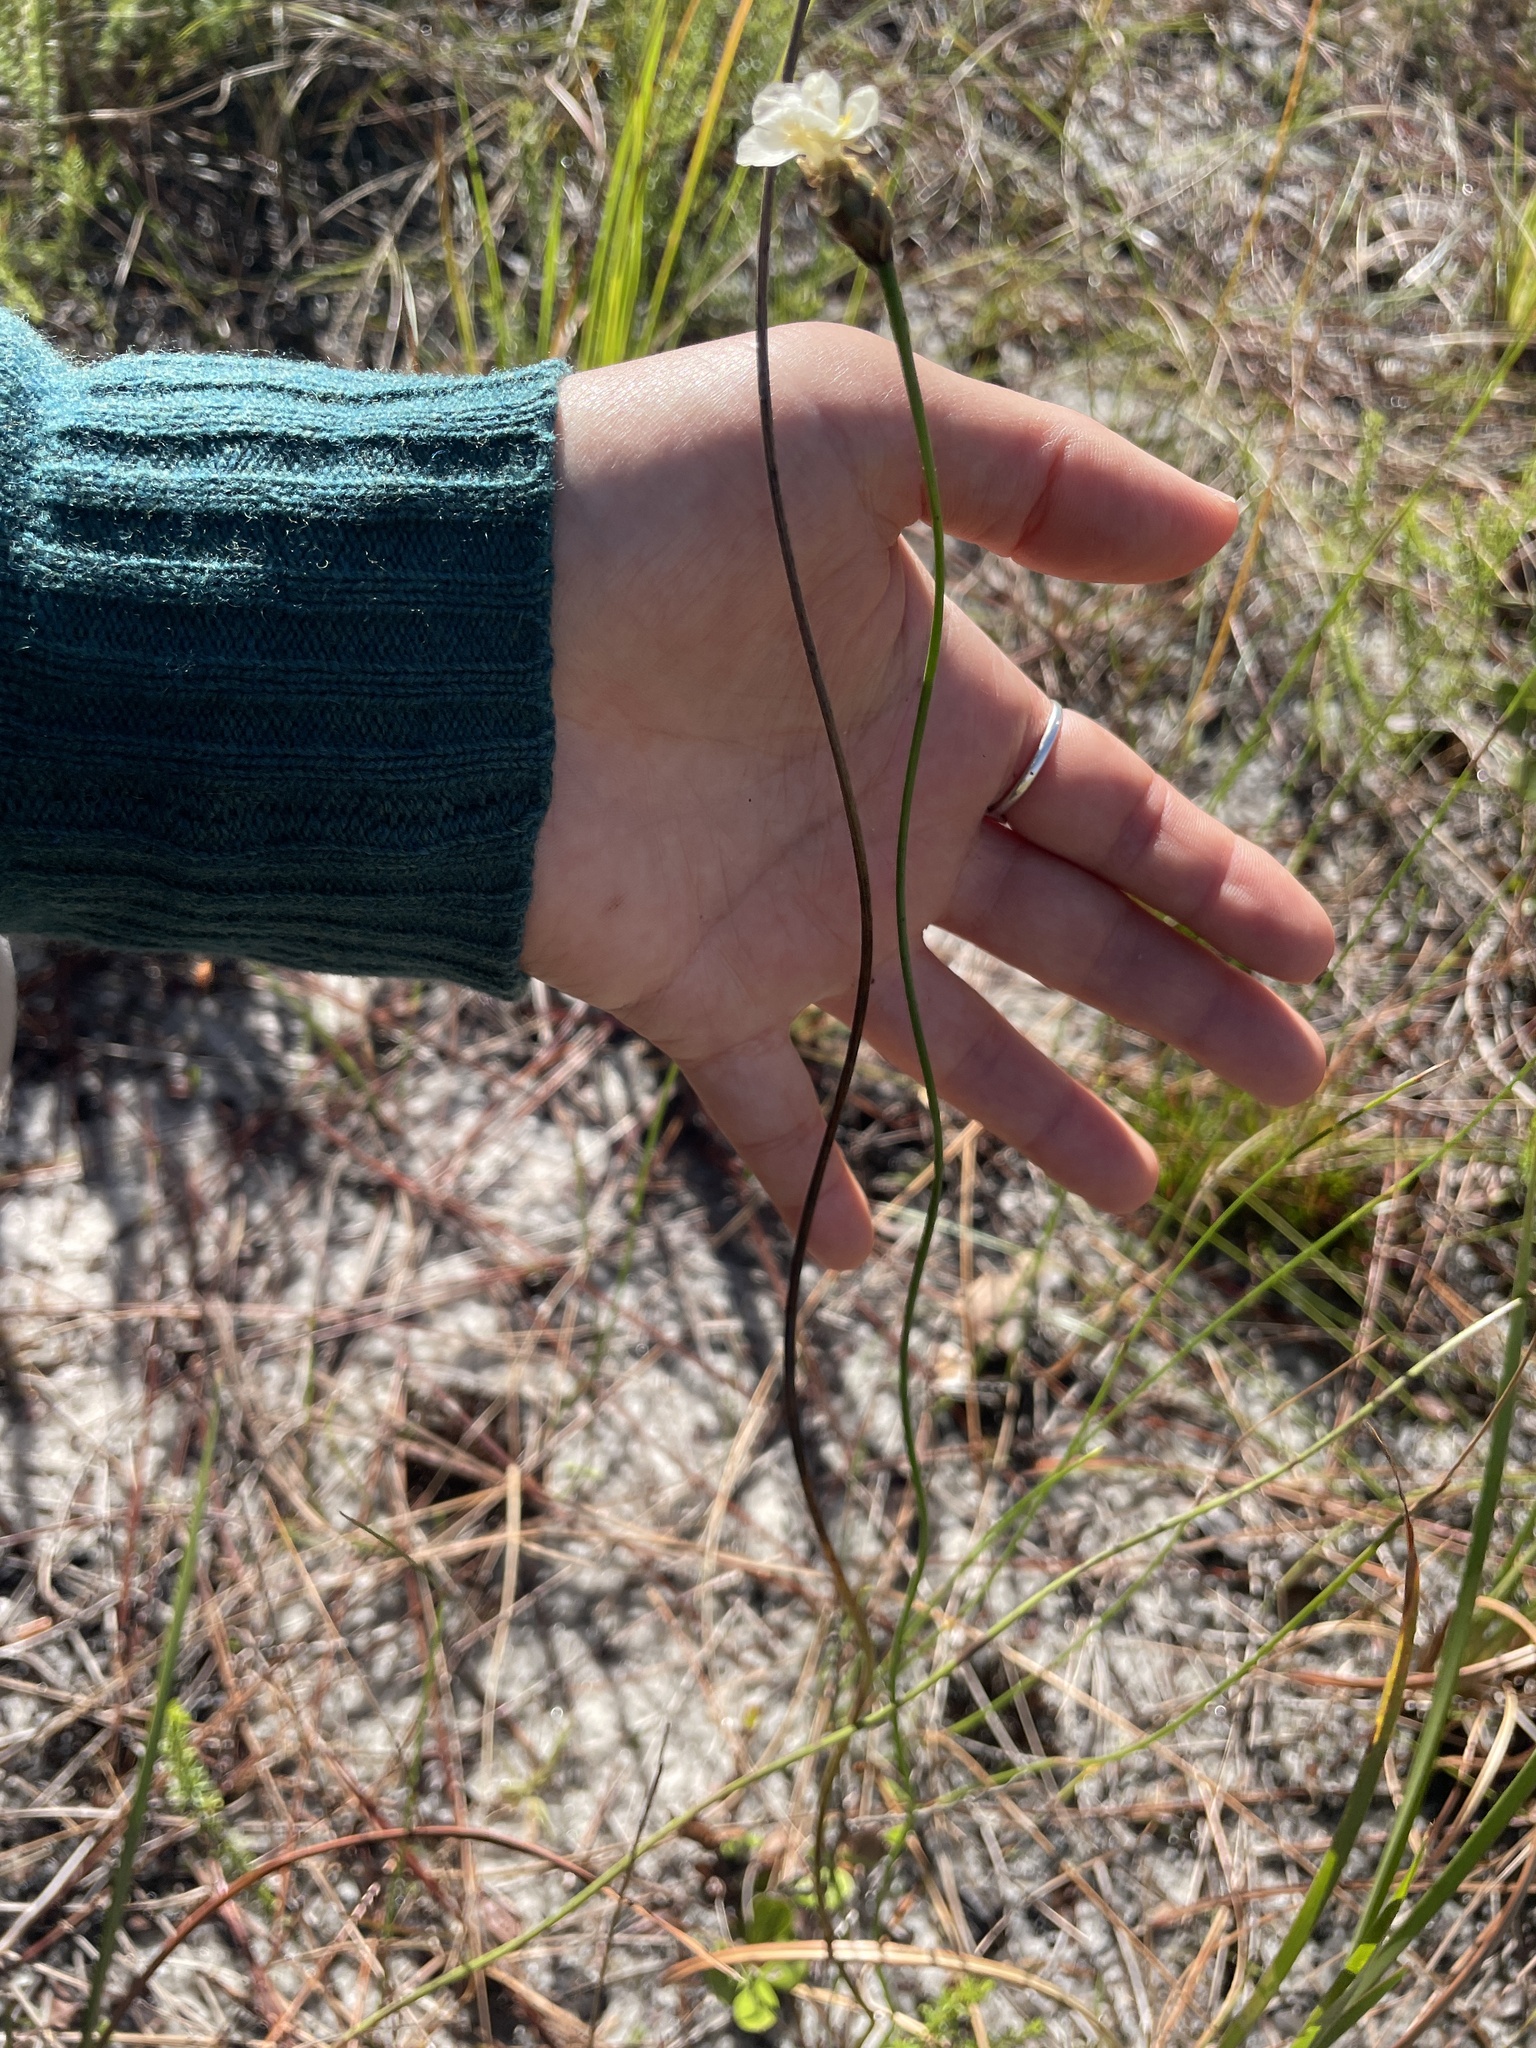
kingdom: Plantae
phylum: Tracheophyta
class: Liliopsida
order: Poales
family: Xyridaceae
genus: Xyris
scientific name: Xyris caroliniana
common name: Carolina yellow-eyed-grass
